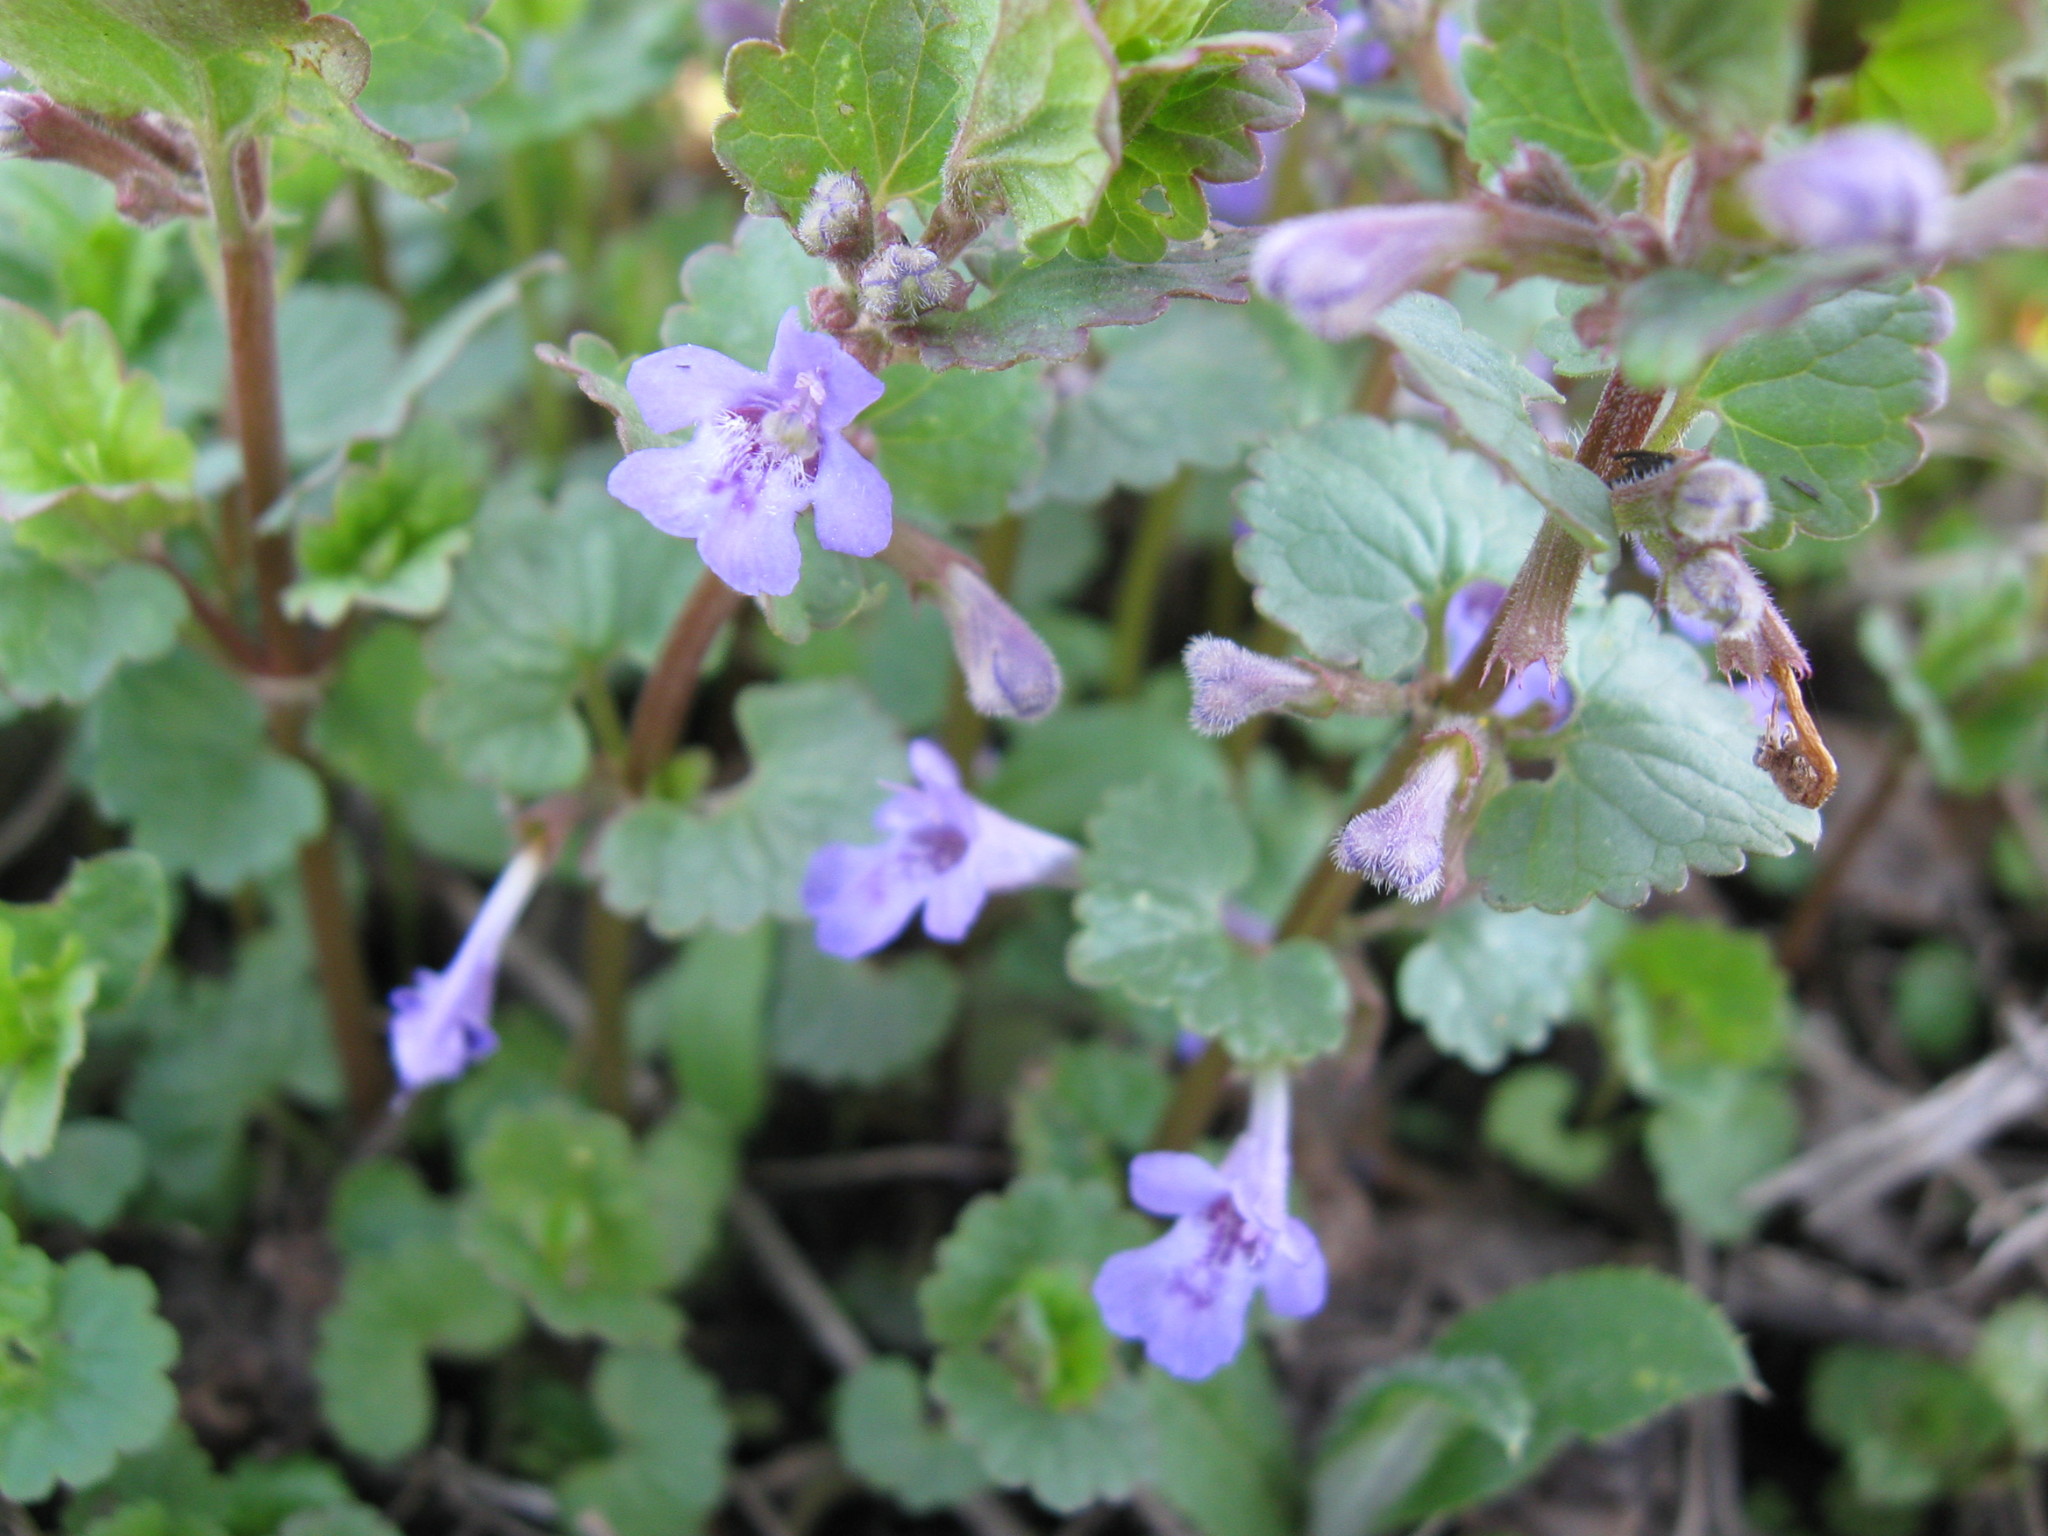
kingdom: Plantae
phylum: Tracheophyta
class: Magnoliopsida
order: Lamiales
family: Lamiaceae
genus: Glechoma
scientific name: Glechoma hederacea
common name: Ground ivy
